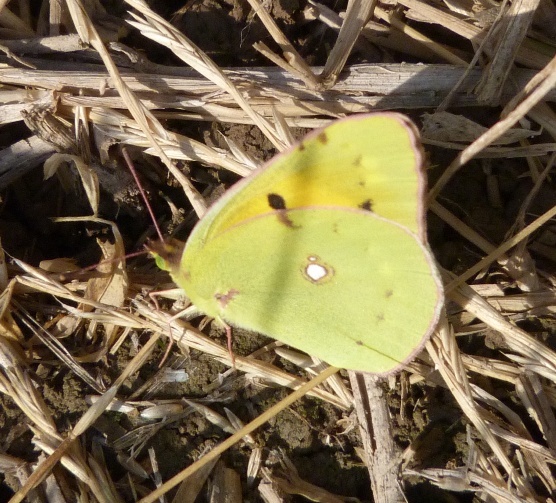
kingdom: Animalia
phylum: Arthropoda
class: Insecta
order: Lepidoptera
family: Pieridae
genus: Colias
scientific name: Colias croceus
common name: Clouded yellow
